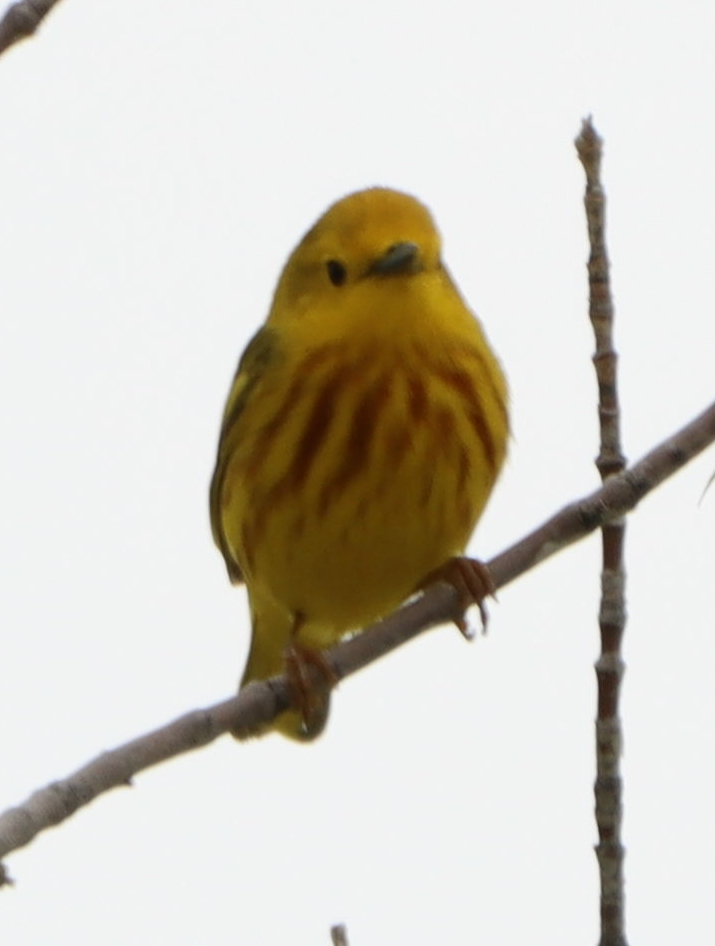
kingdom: Animalia
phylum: Chordata
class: Aves
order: Passeriformes
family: Parulidae
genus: Setophaga
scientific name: Setophaga petechia
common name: Yellow warbler
